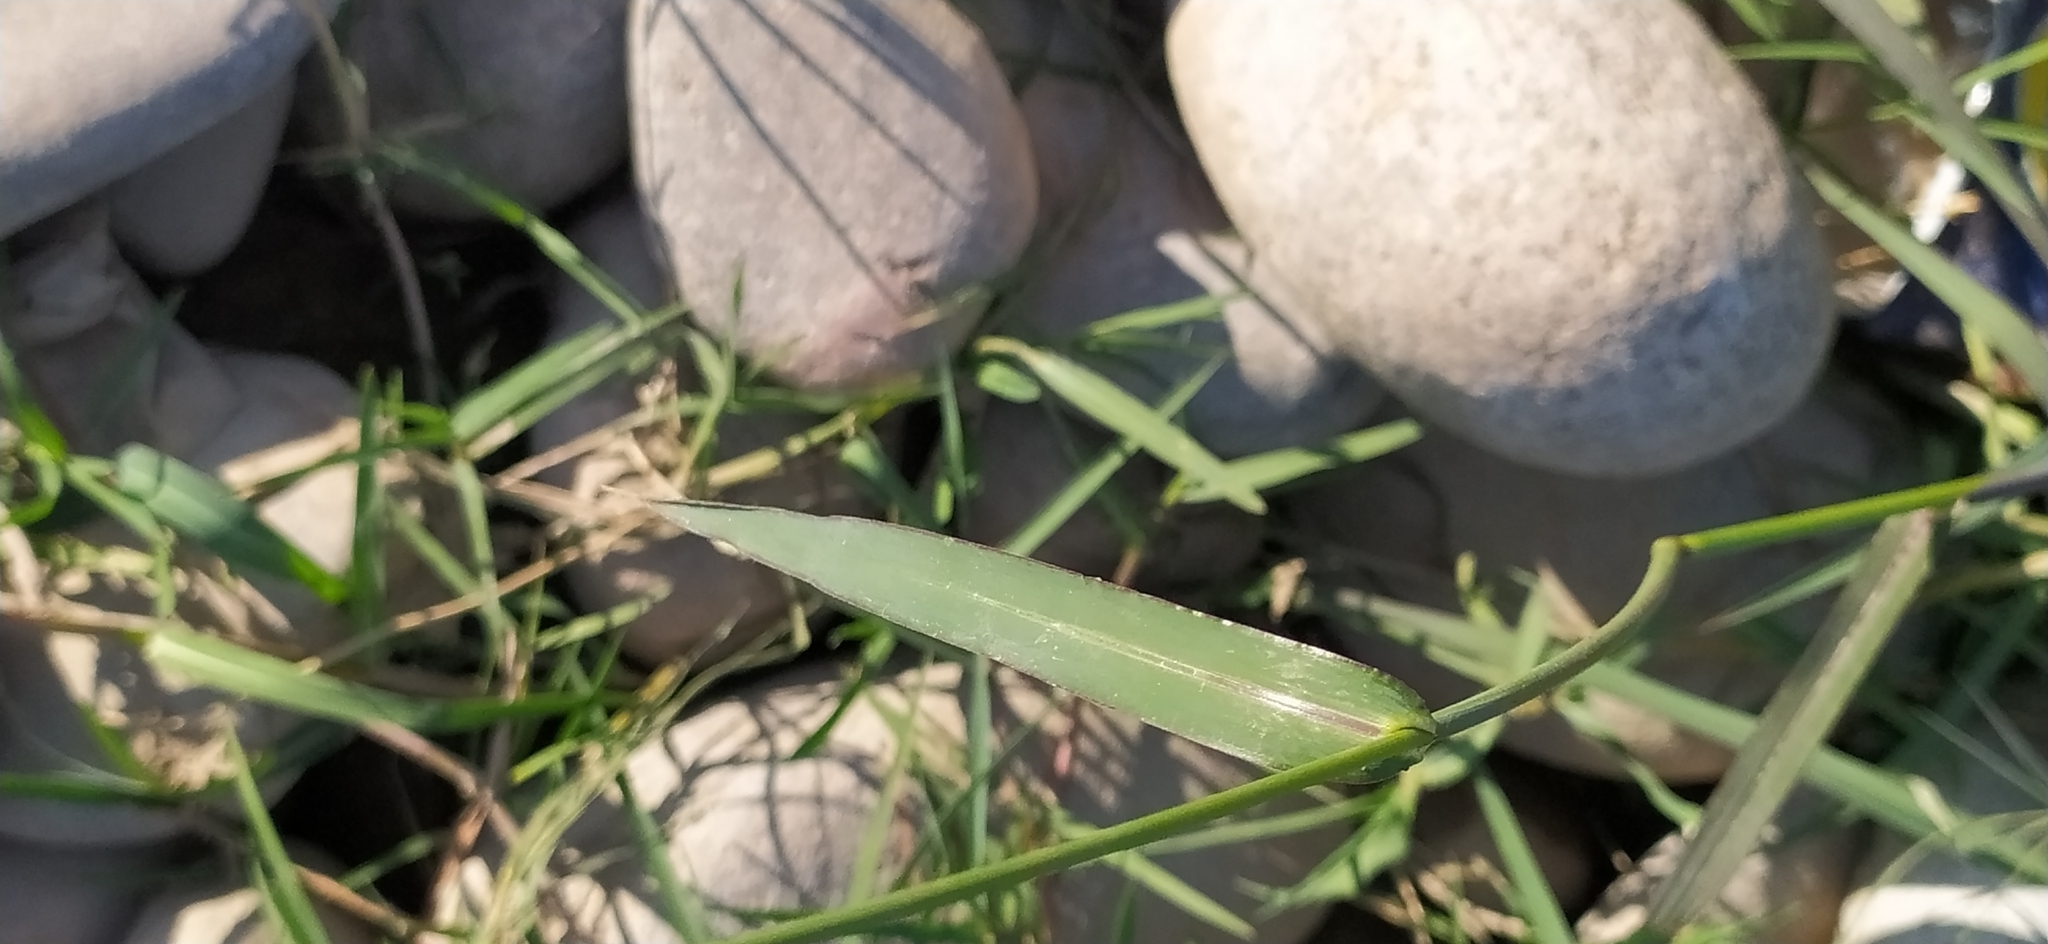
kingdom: Plantae
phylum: Tracheophyta
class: Liliopsida
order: Poales
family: Poaceae
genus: Echinochloa
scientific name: Echinochloa crus-galli
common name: Cockspur
